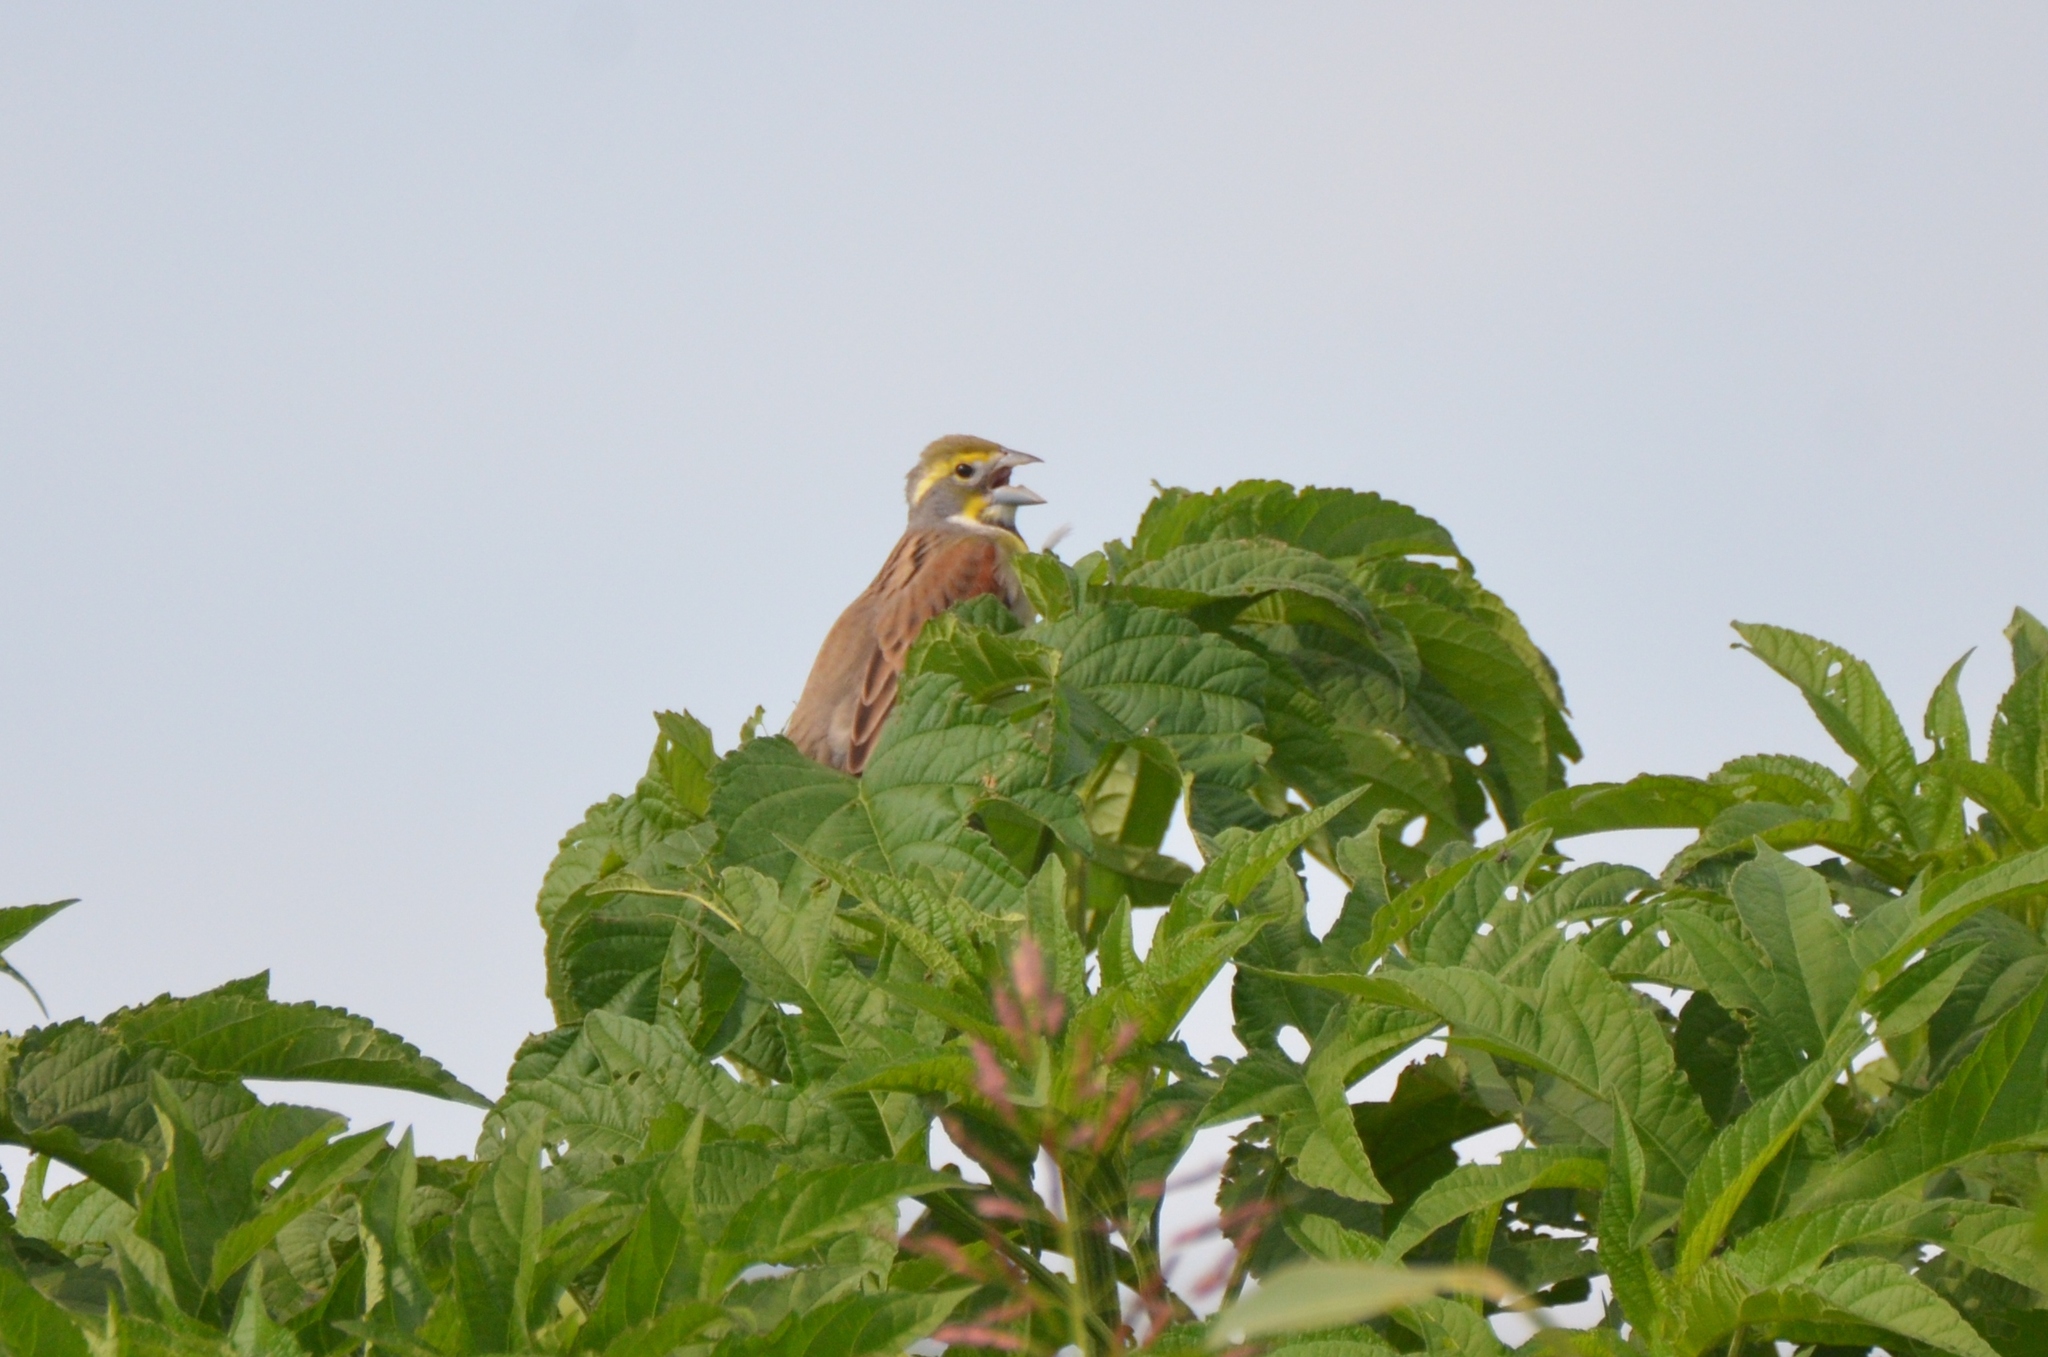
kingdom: Animalia
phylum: Chordata
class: Aves
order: Passeriformes
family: Cardinalidae
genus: Spiza
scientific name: Spiza americana
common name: Dickcissel
